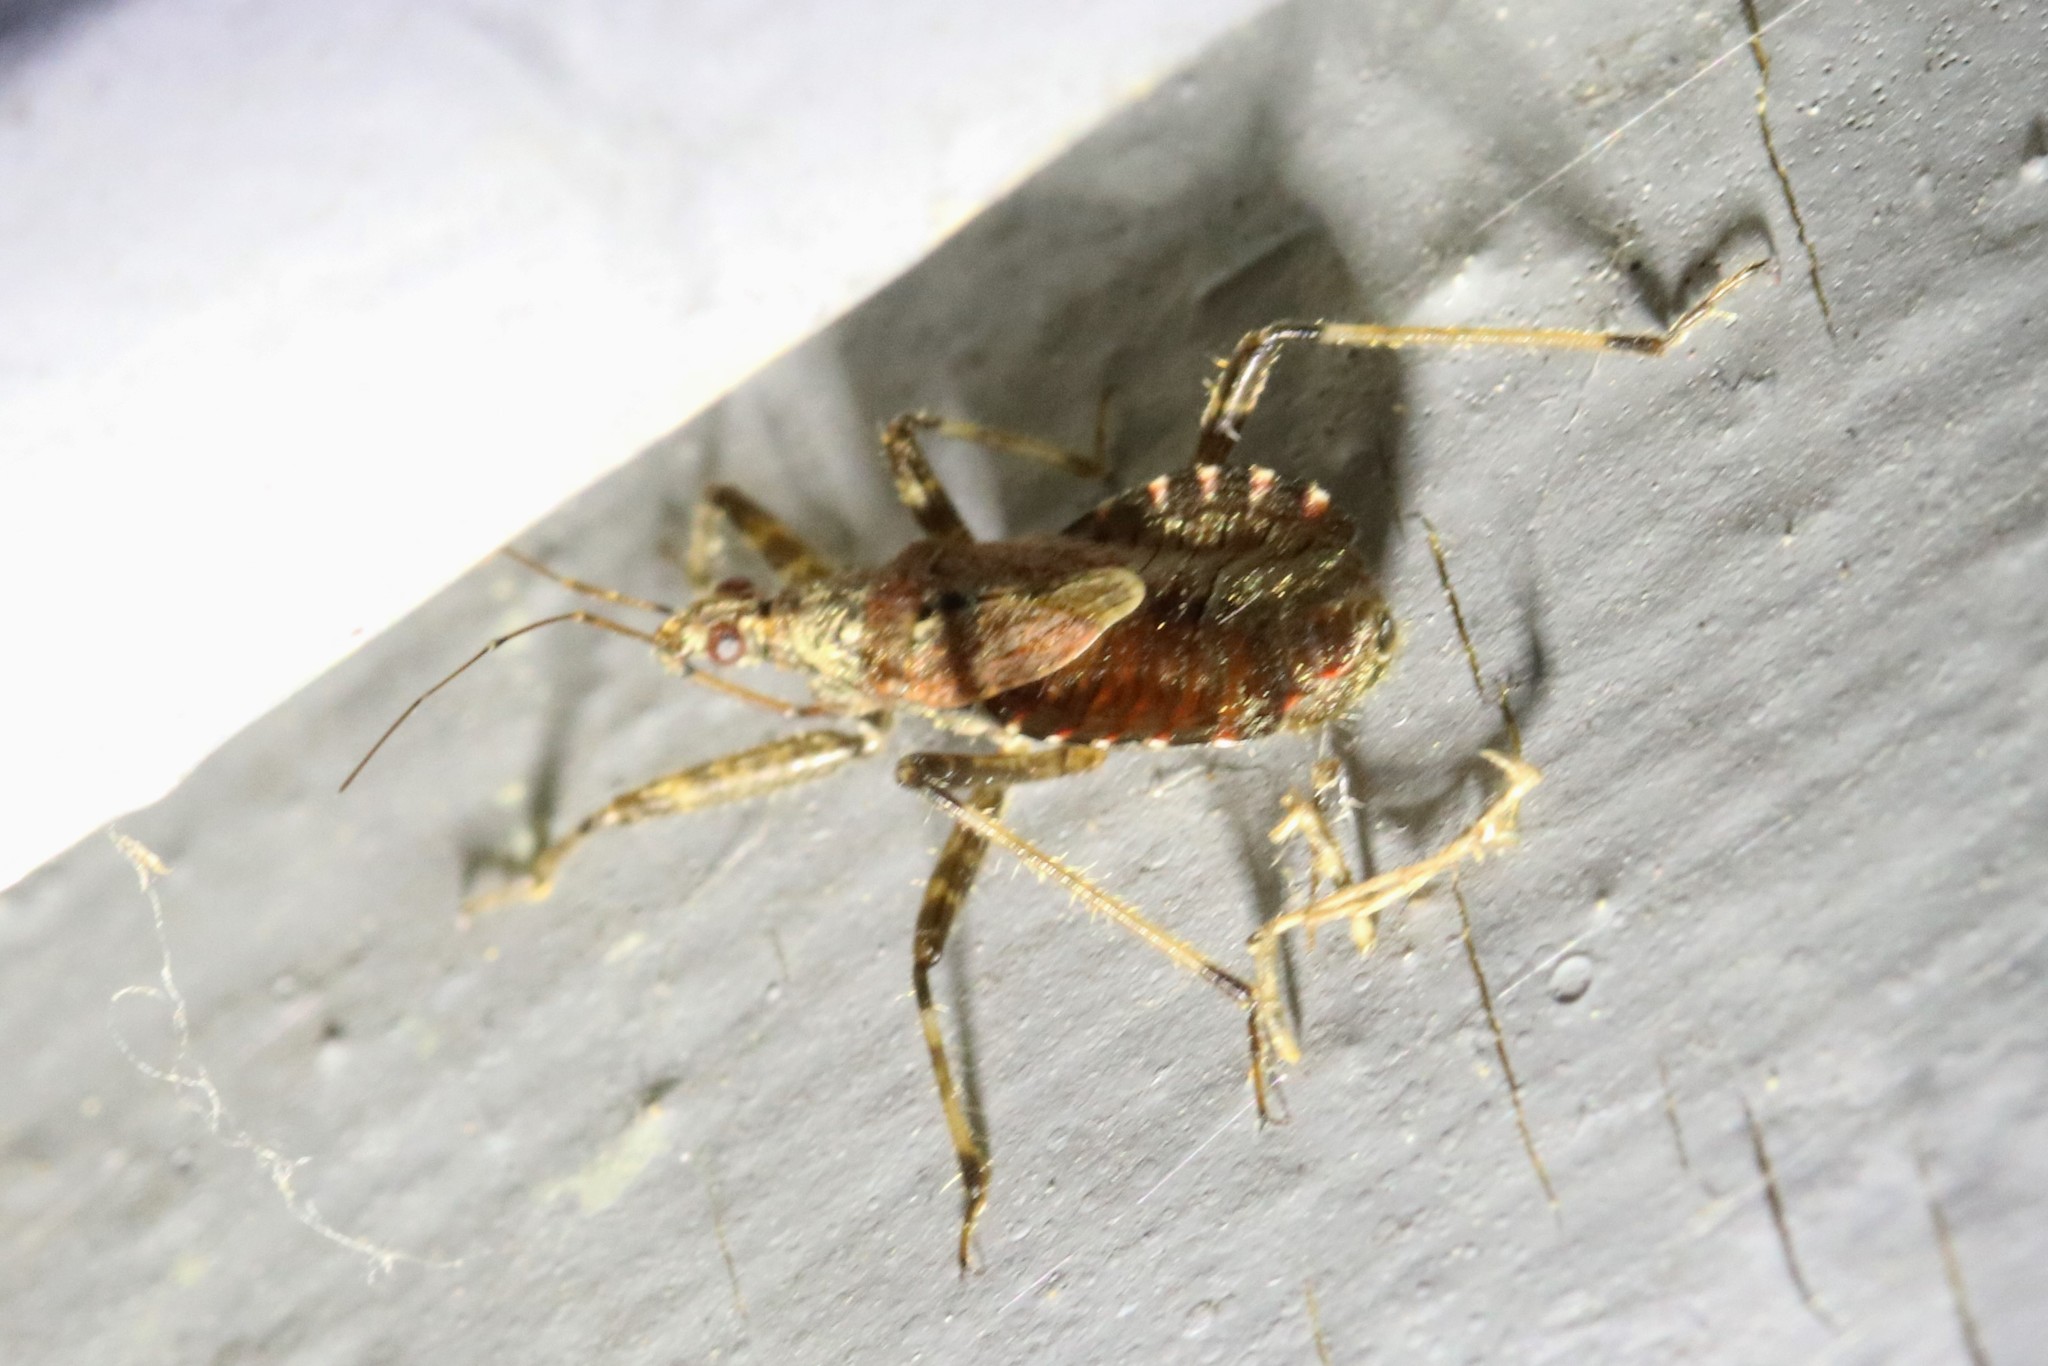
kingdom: Animalia
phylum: Arthropoda
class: Insecta
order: Hemiptera
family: Nabidae
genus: Himacerus
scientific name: Himacerus apterus
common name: Tree damsel bug
